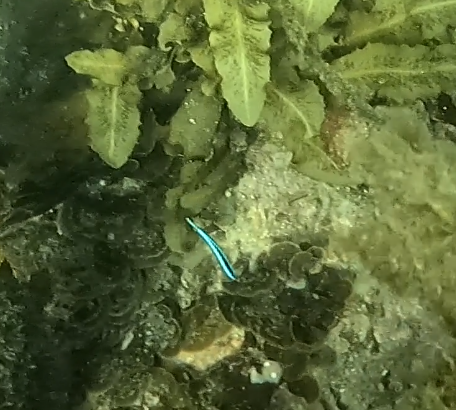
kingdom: Animalia
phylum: Chordata
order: Perciformes
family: Labridae
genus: Labroides
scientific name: Labroides dimidiatus
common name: Blue diesel wrasse
